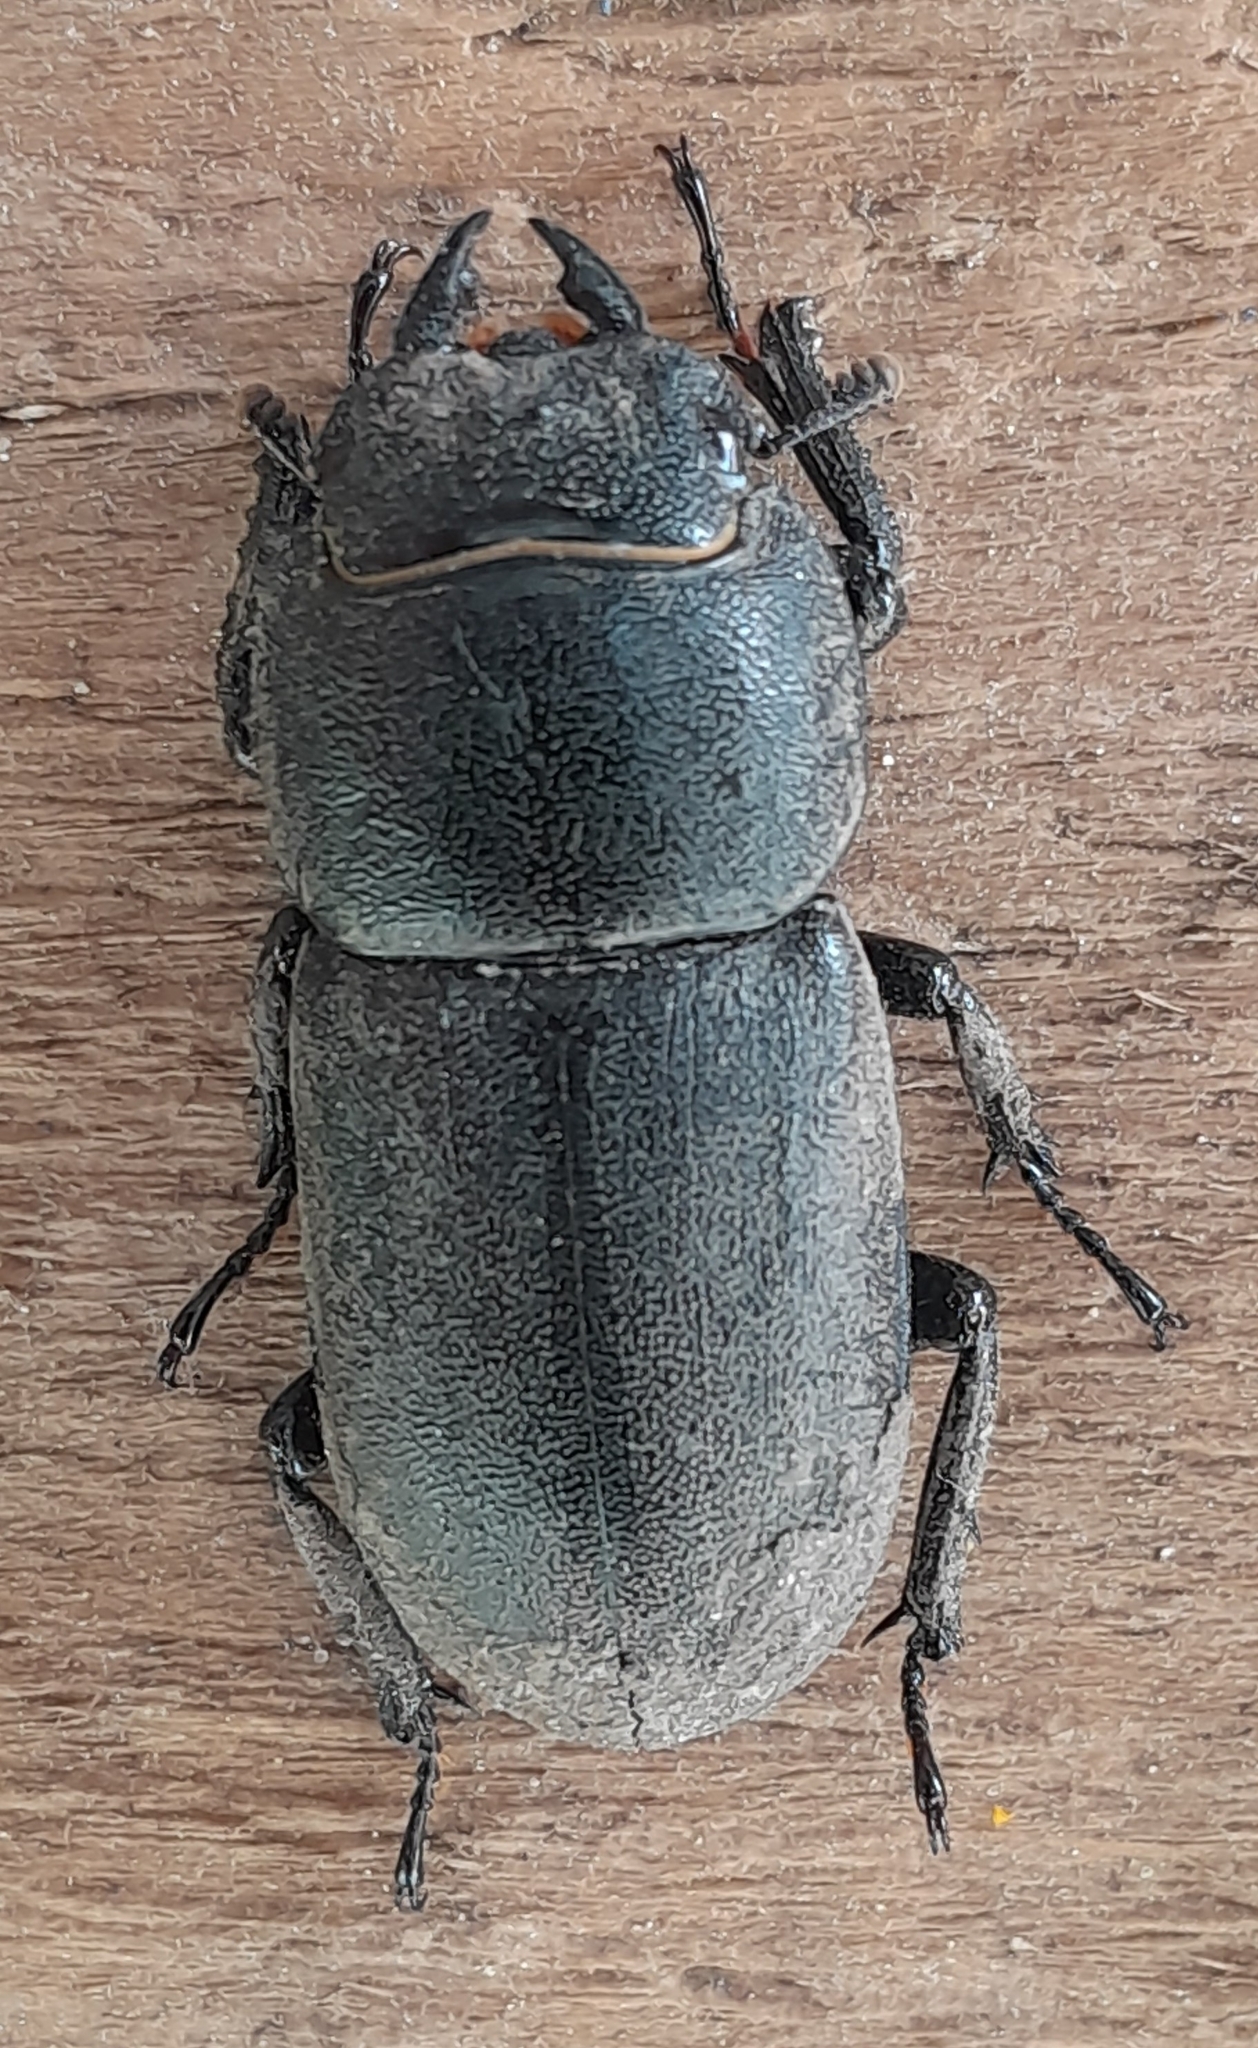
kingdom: Animalia
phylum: Arthropoda
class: Insecta
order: Coleoptera
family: Lucanidae
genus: Dorcus
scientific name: Dorcus parallelipipedus
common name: Lesser stag beetle
